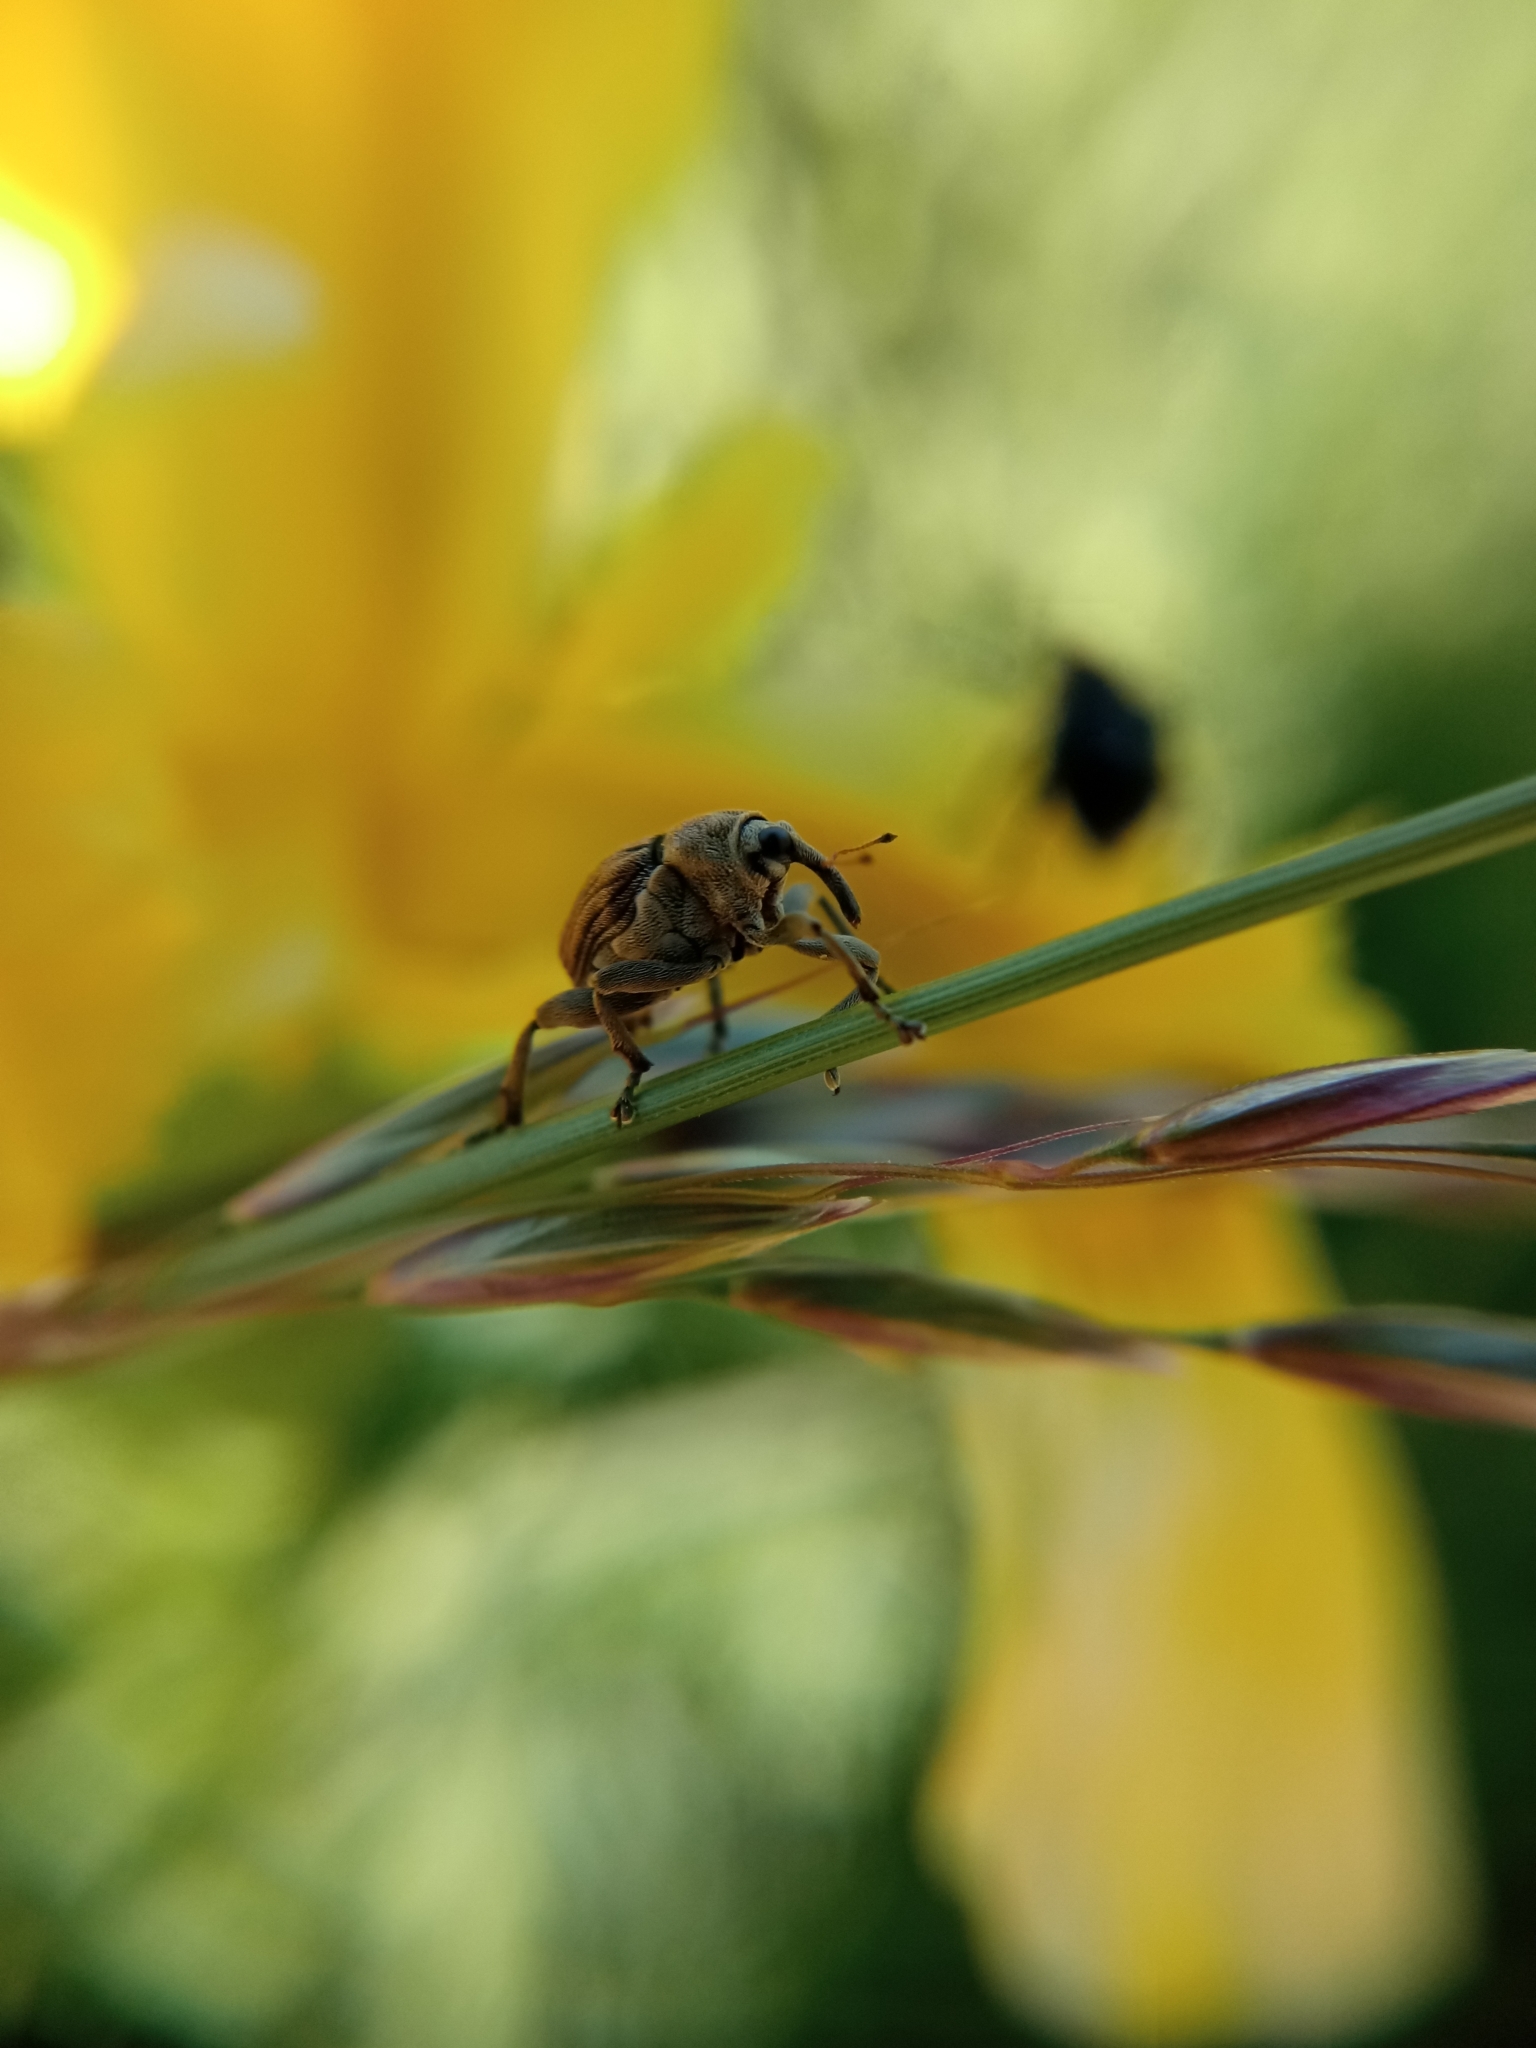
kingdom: Animalia
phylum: Arthropoda
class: Insecta
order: Coleoptera
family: Curculionidae
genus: Mononychus
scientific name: Mononychus punctumalbum
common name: Iris weevil
